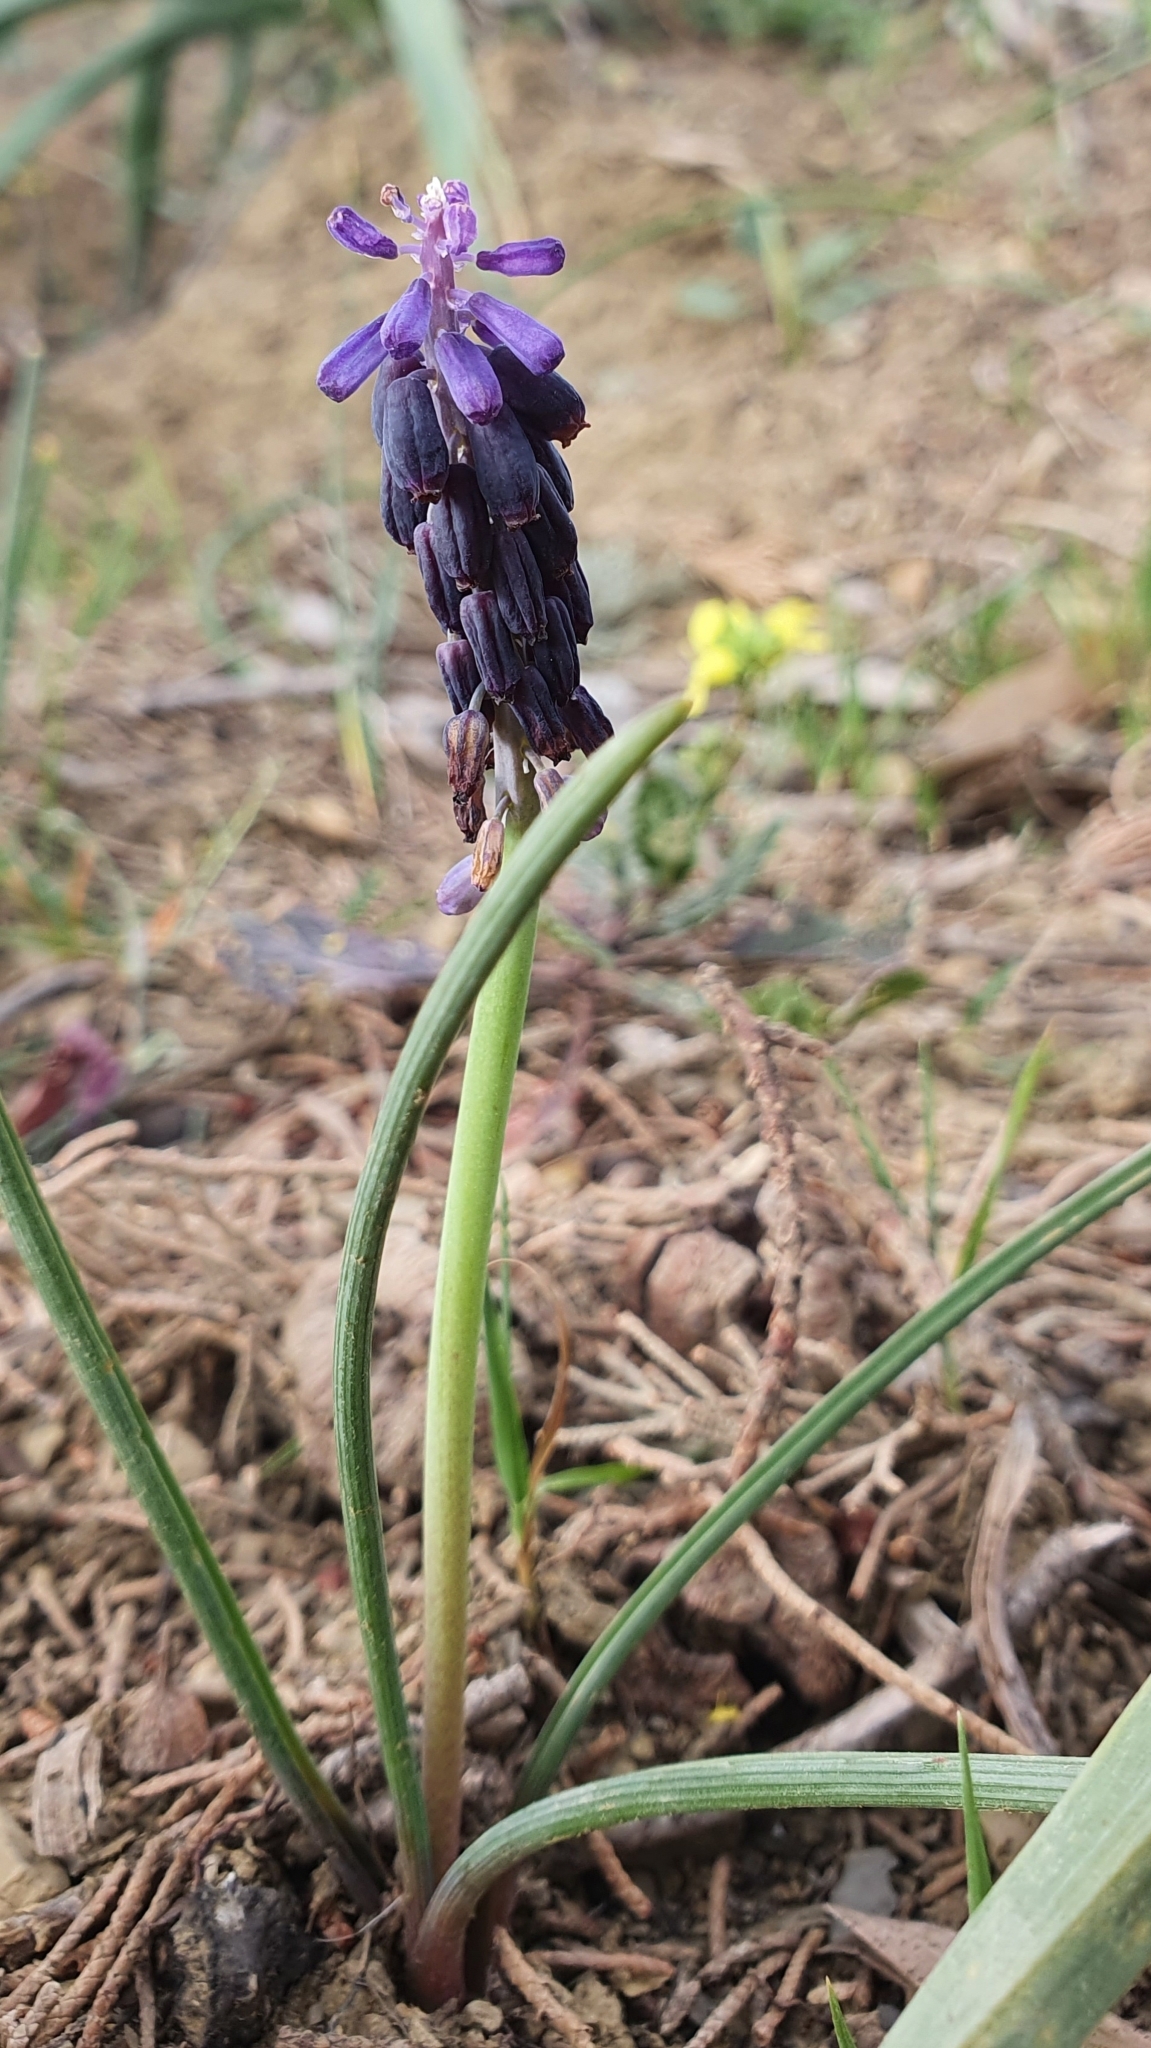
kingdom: Plantae
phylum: Tracheophyta
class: Liliopsida
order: Asparagales
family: Asparagaceae
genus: Muscari
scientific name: Muscari baeticum
